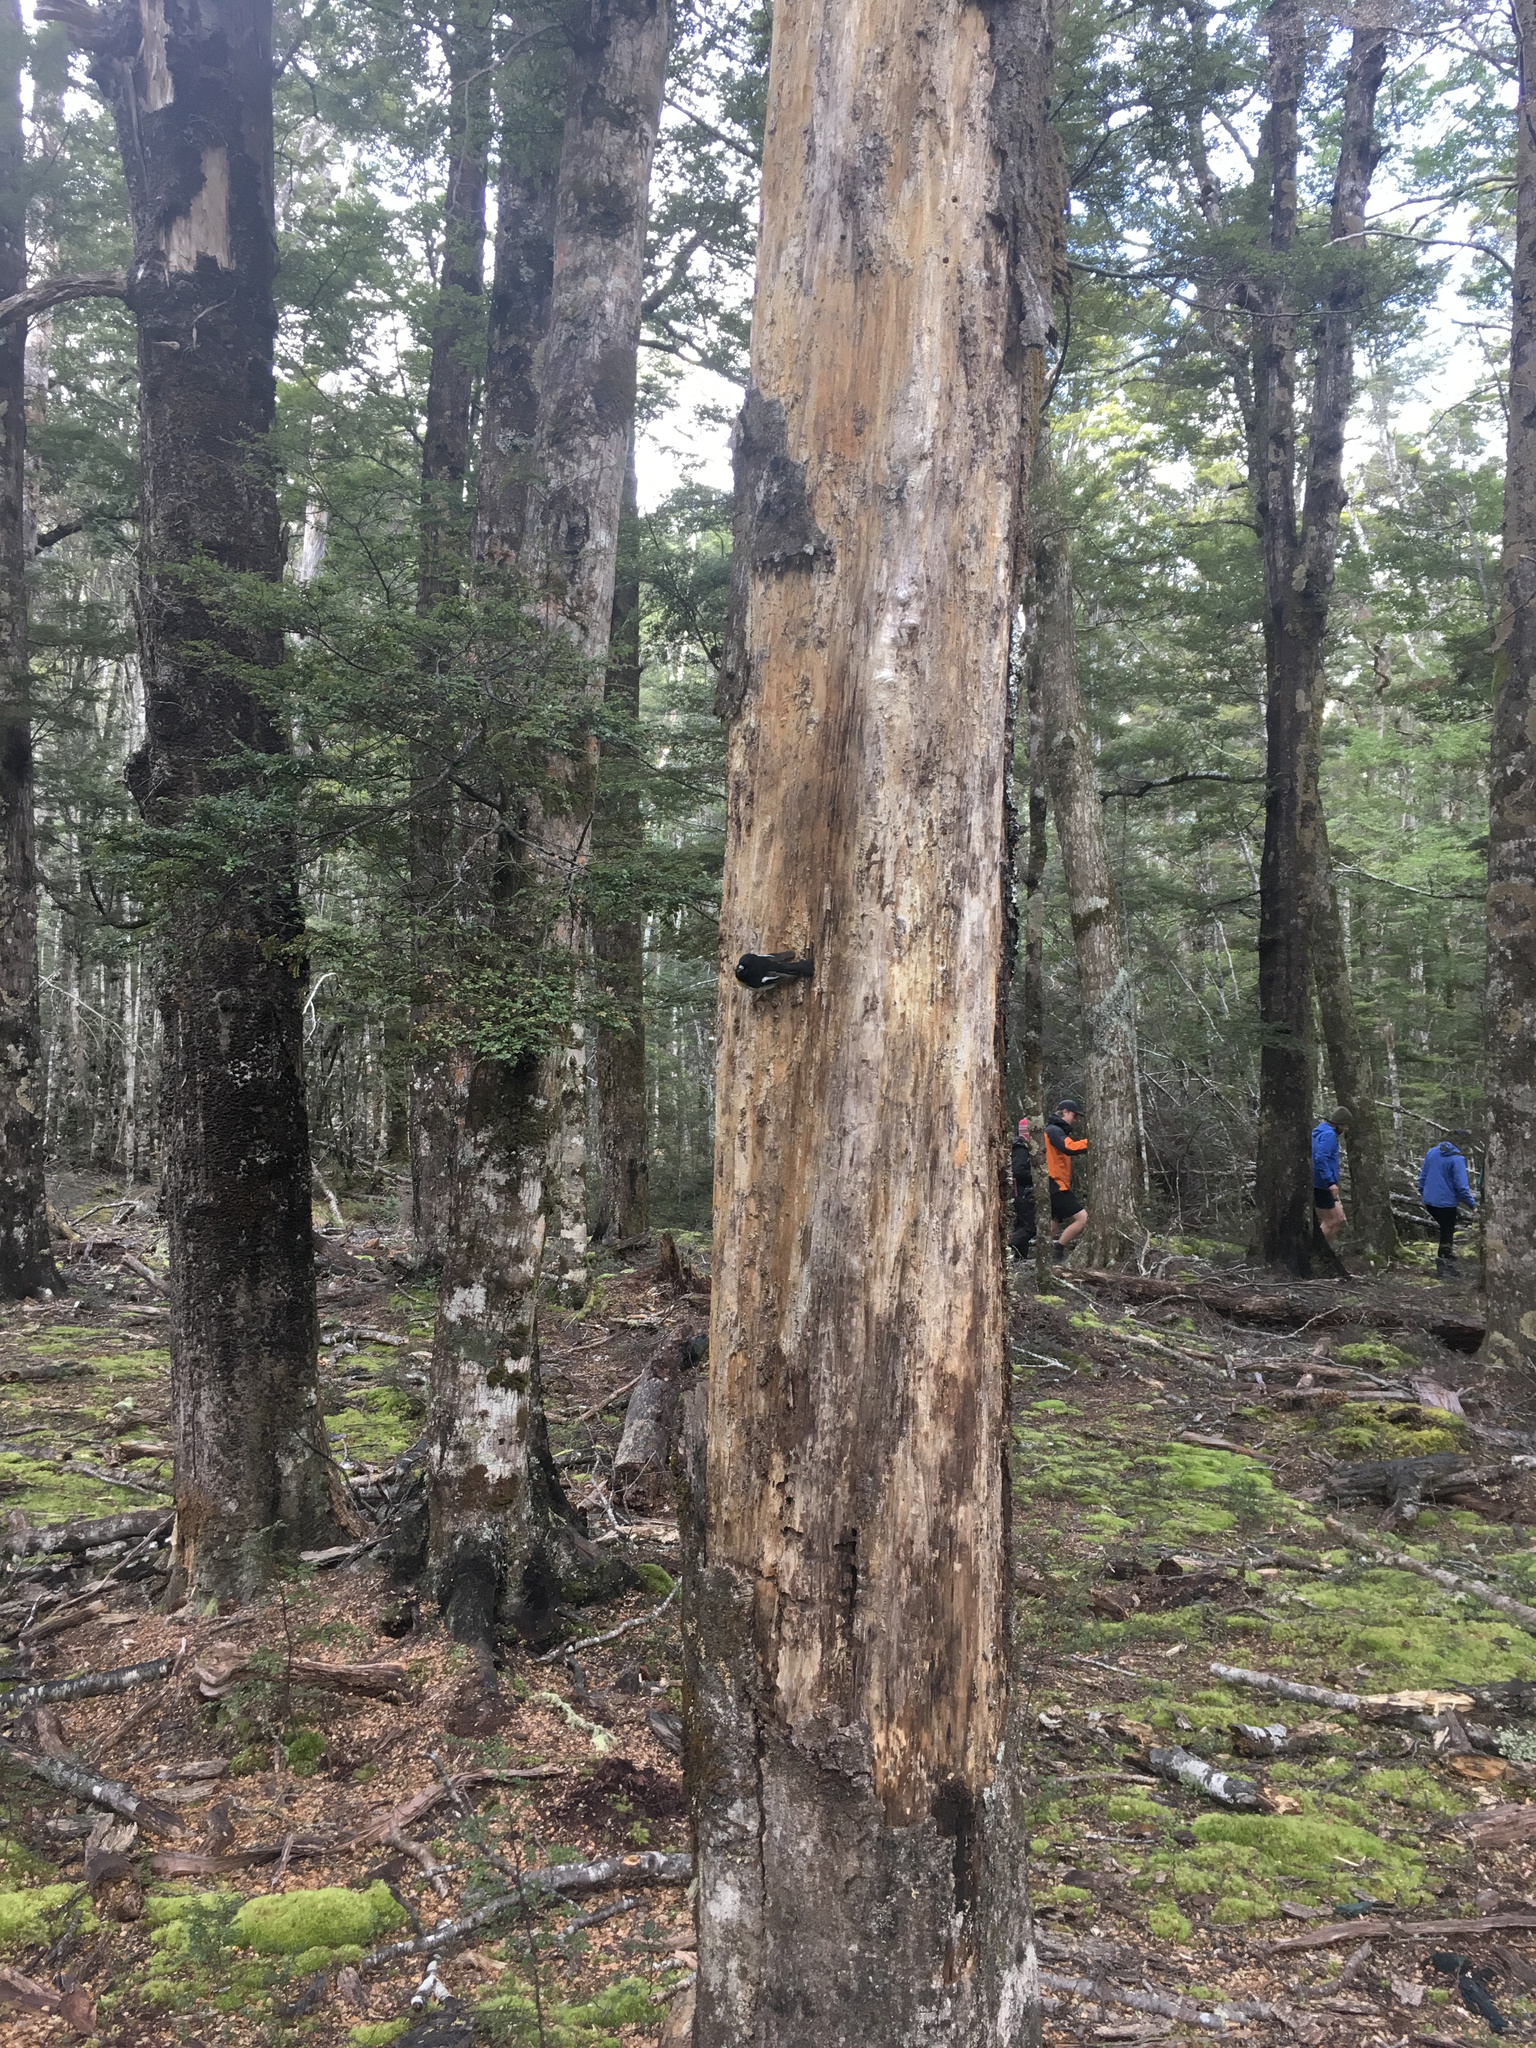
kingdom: Animalia
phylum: Chordata
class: Aves
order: Passeriformes
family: Petroicidae
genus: Petroica
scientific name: Petroica macrocephala
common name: Tomtit
